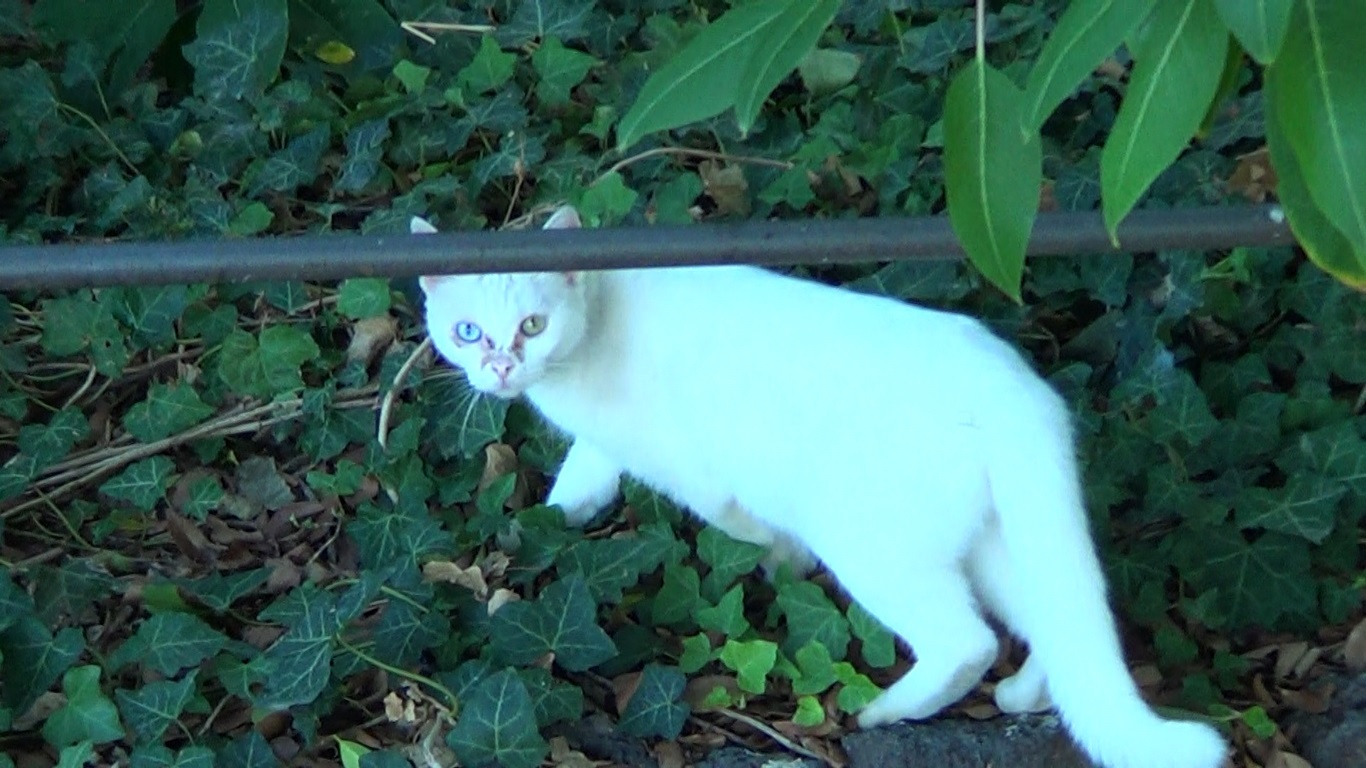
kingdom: Animalia
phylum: Chordata
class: Mammalia
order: Carnivora
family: Felidae
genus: Felis
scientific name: Felis catus
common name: Domestic cat
